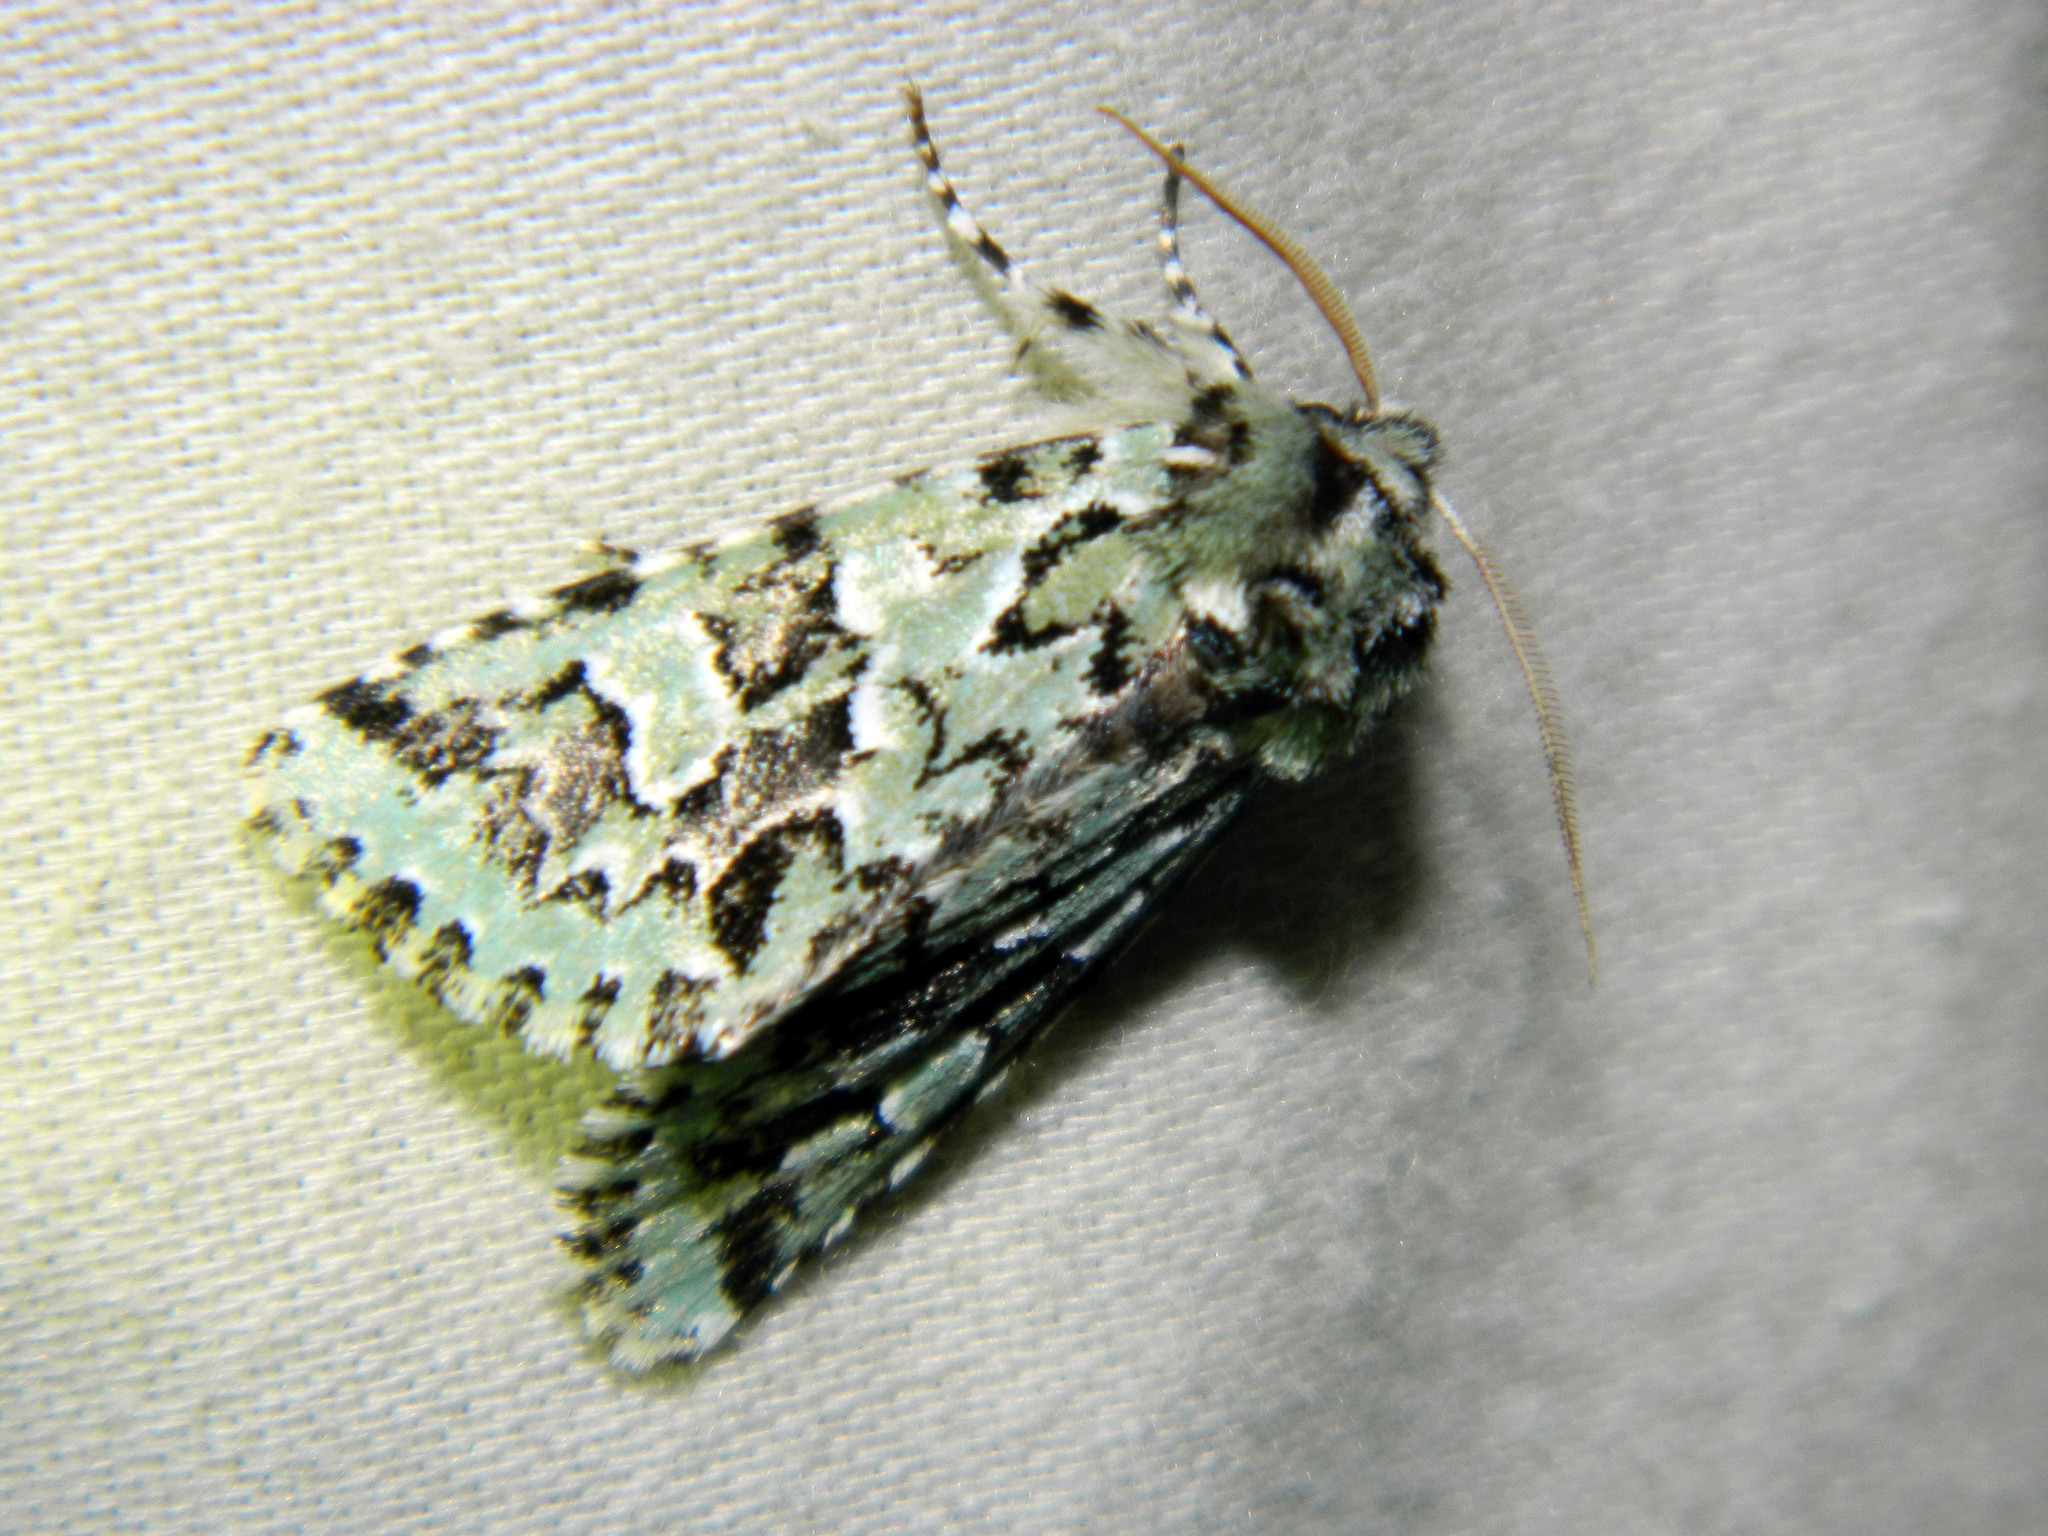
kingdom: Animalia
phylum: Arthropoda
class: Insecta
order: Lepidoptera
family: Noctuidae
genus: Feralia
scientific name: Feralia comstocki
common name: Comstock's sallow
